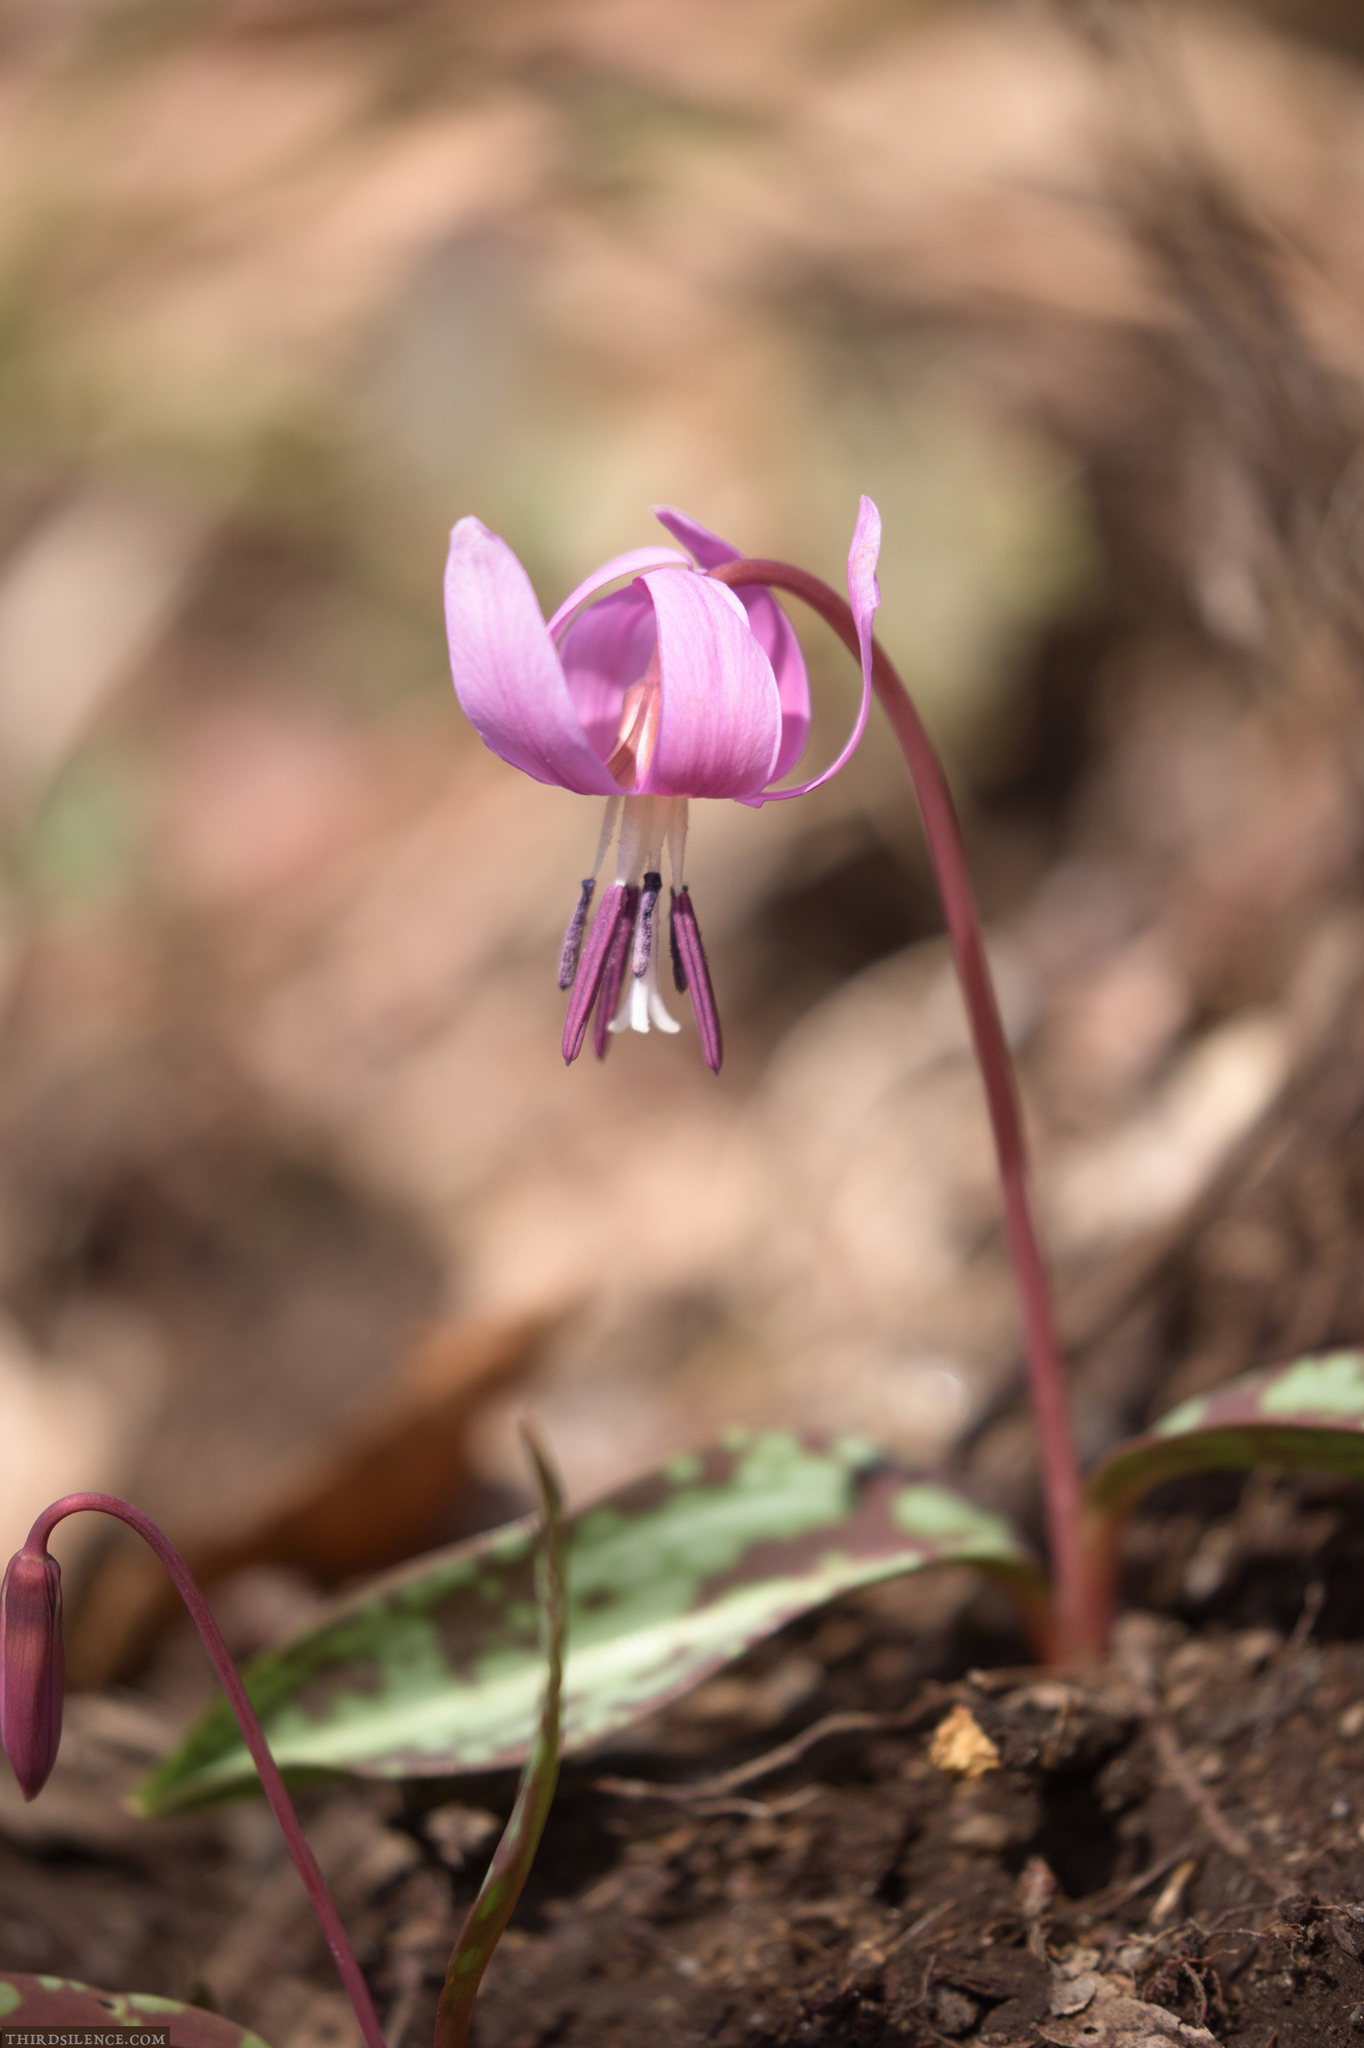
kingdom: Plantae
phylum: Tracheophyta
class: Liliopsida
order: Liliales
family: Liliaceae
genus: Erythronium
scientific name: Erythronium dens-canis
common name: Dog's-tooth-violet
